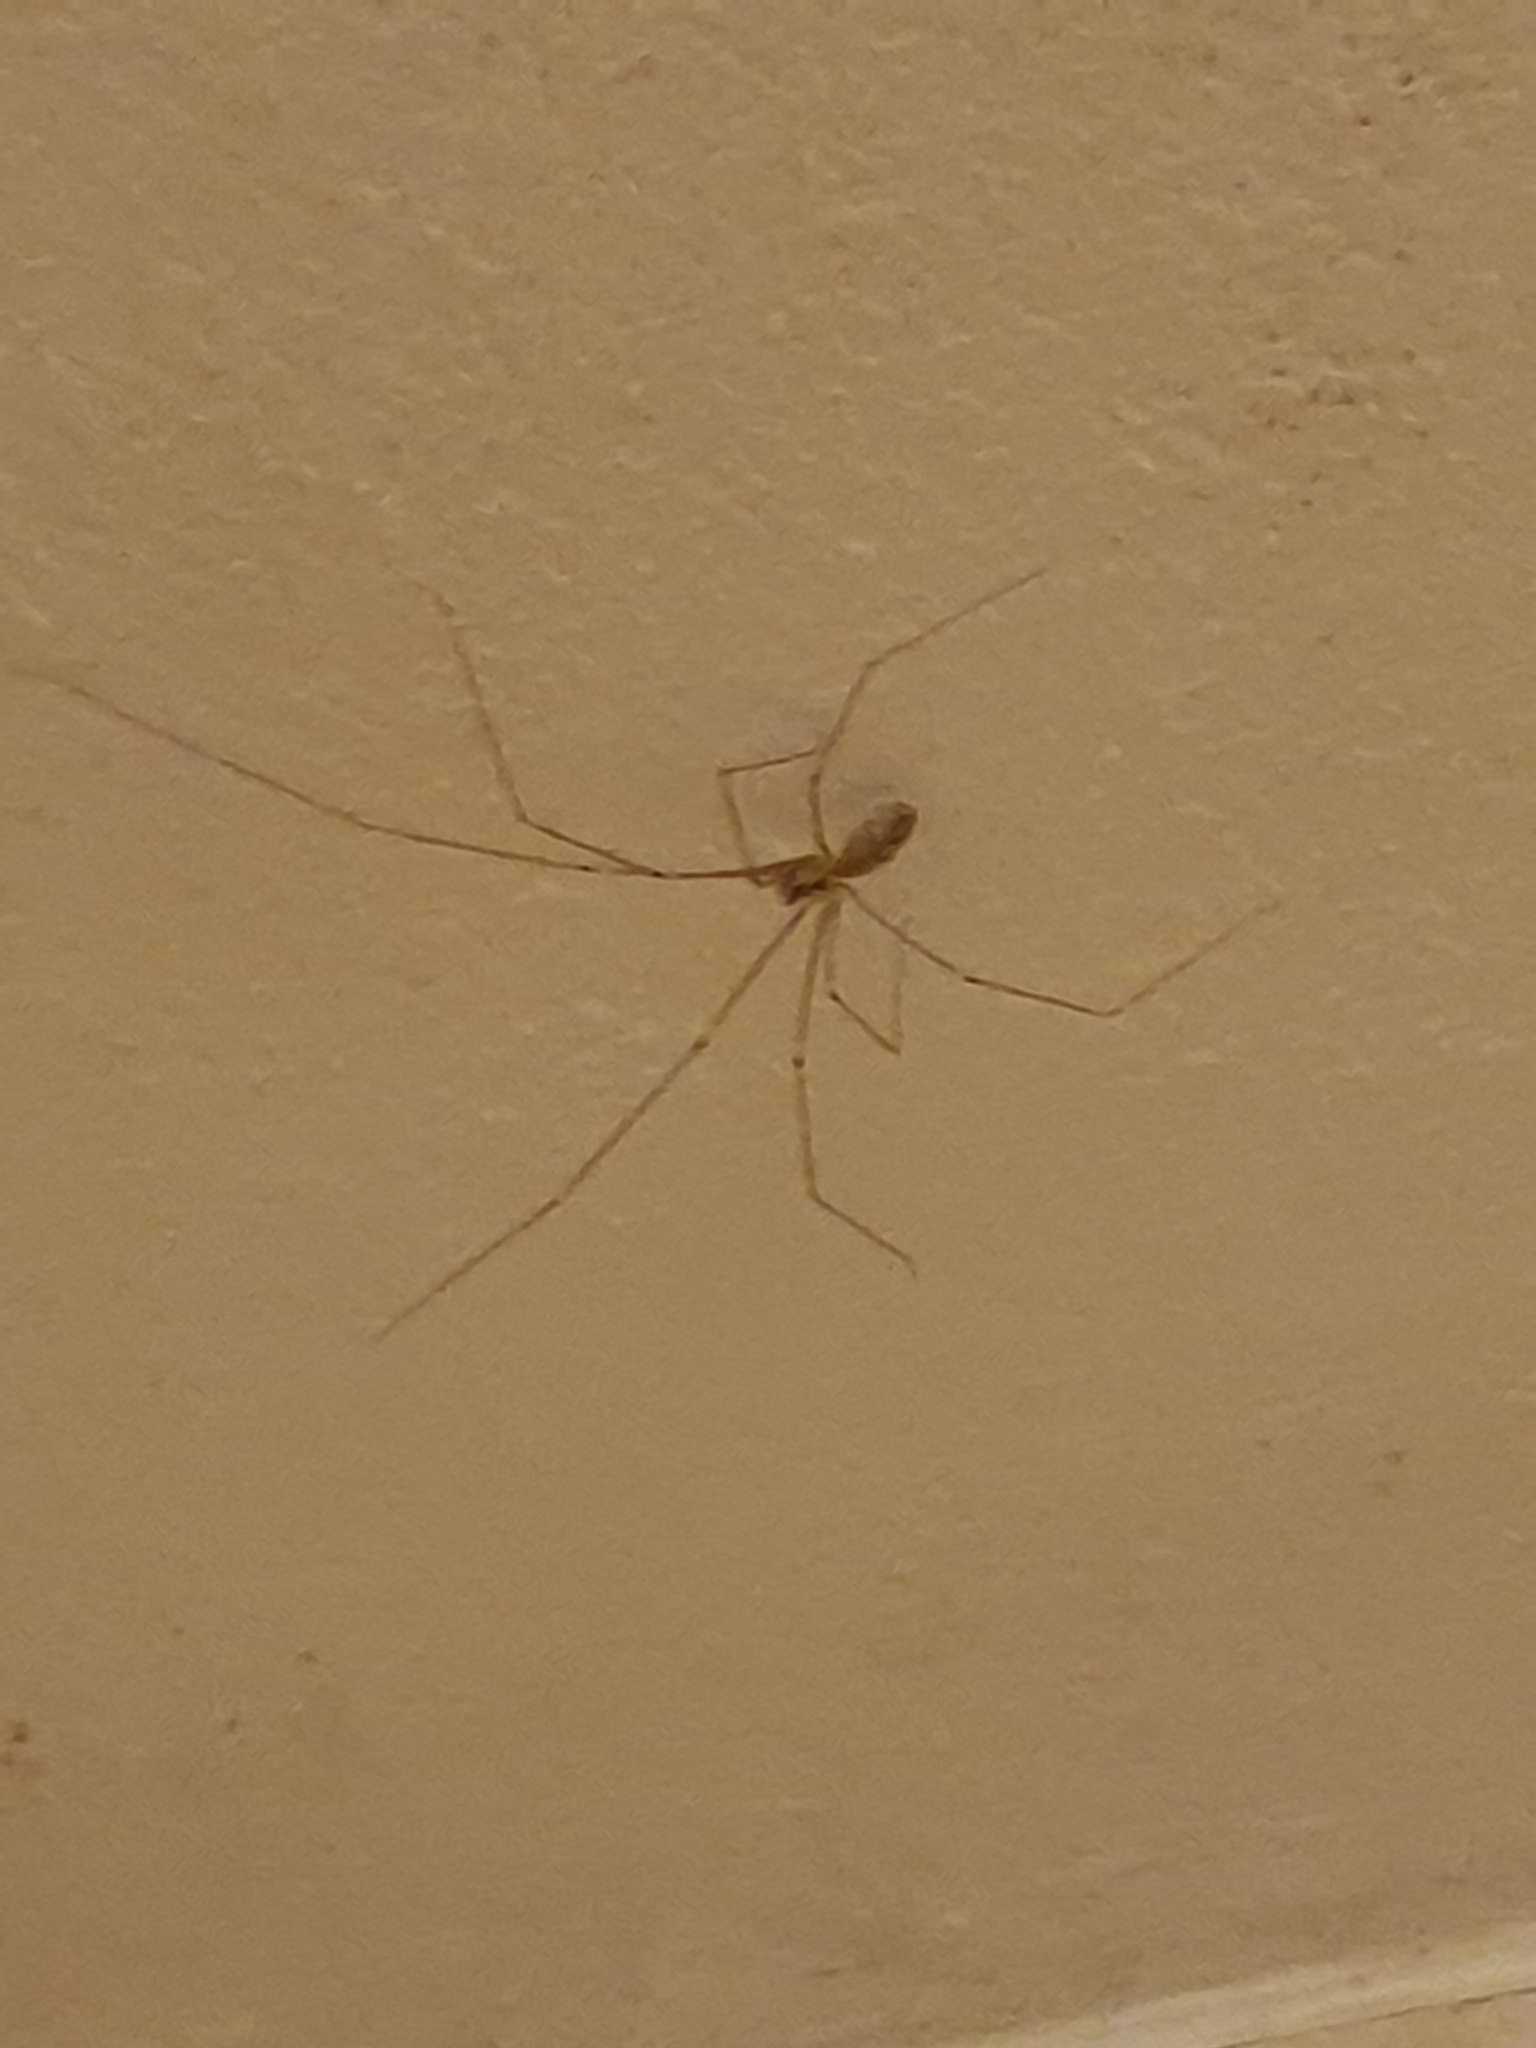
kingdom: Animalia
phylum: Arthropoda
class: Arachnida
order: Araneae
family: Pholcidae
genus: Pholcus
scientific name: Pholcus phalangioides
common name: Longbodied cellar spider
